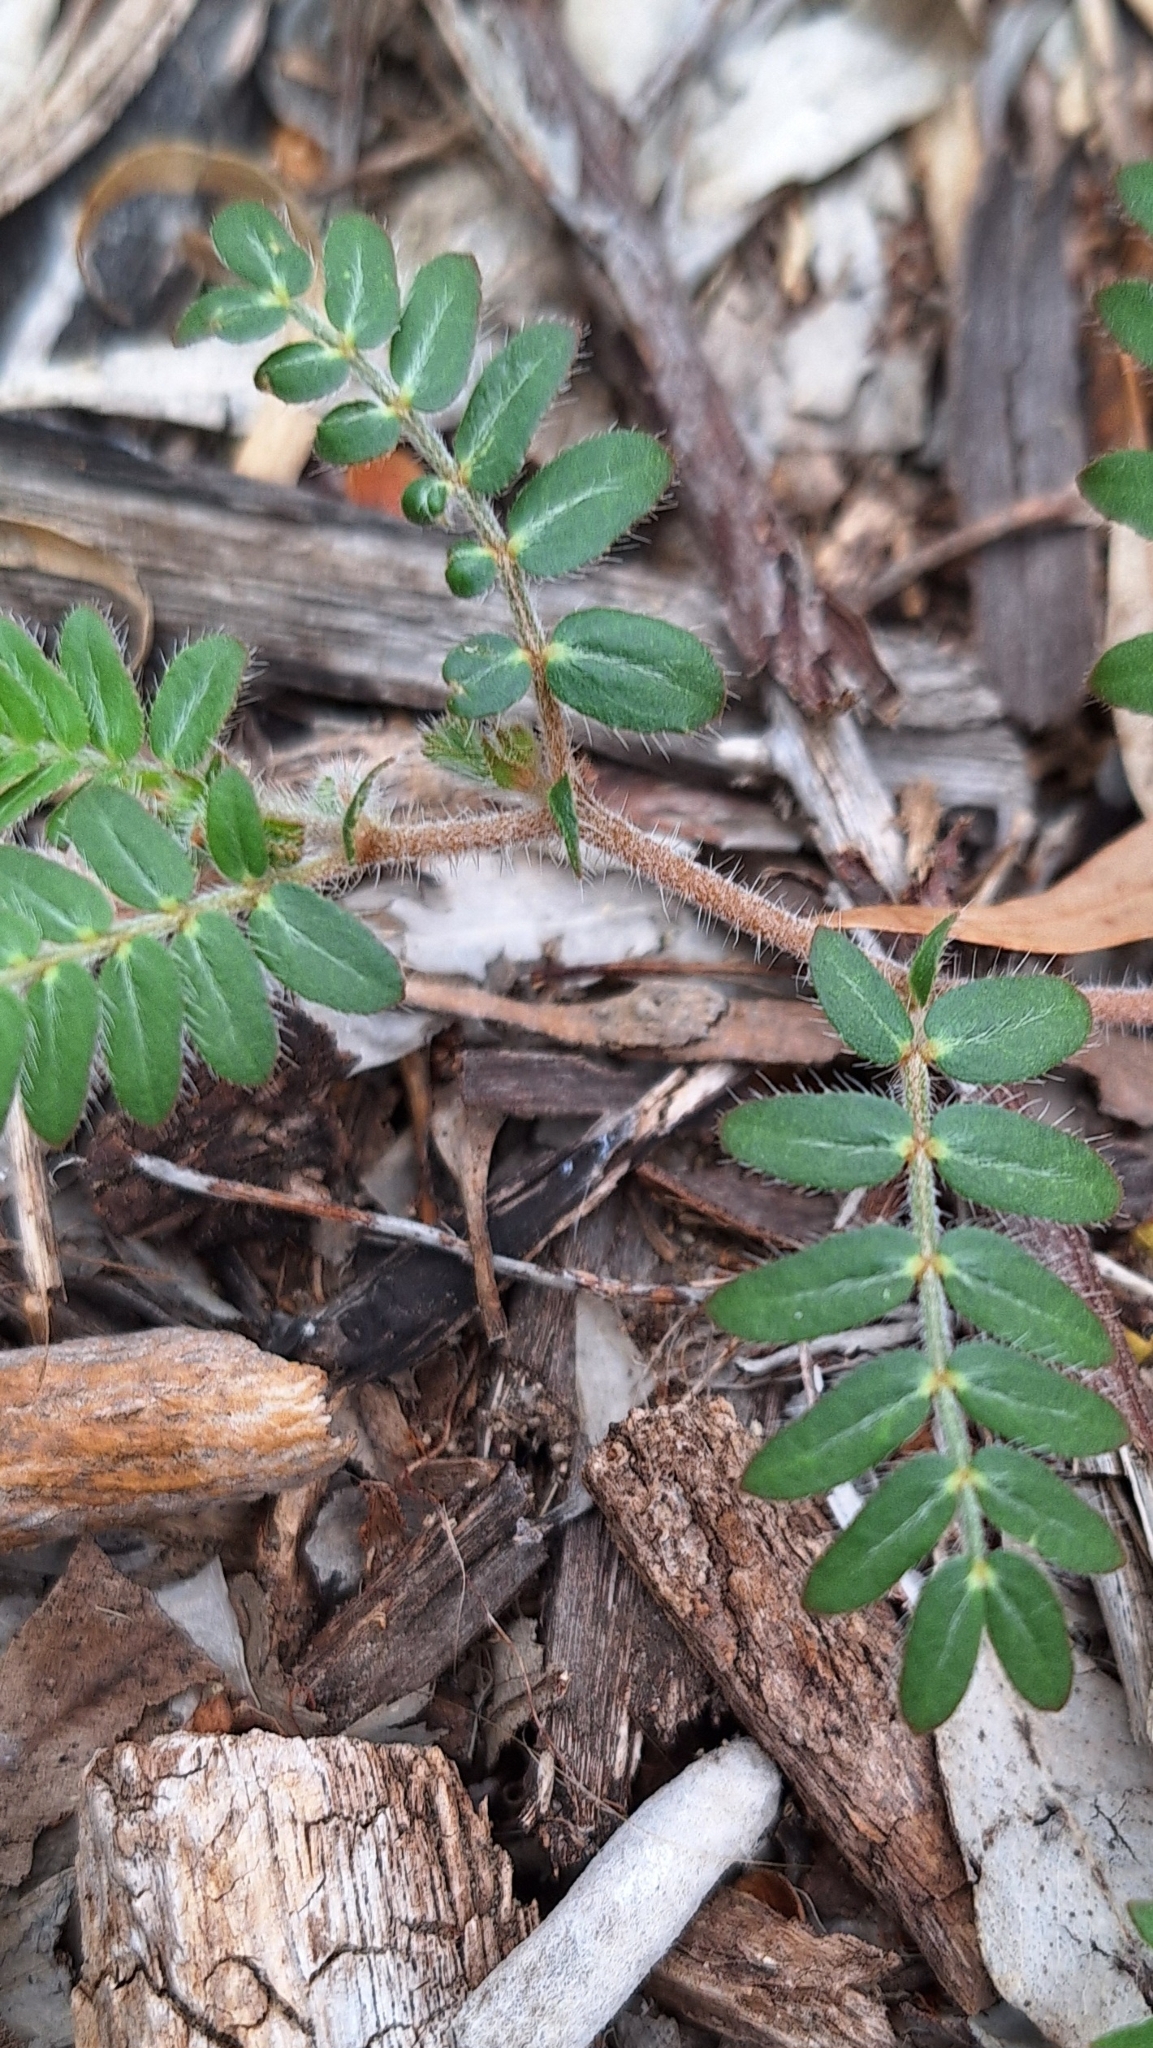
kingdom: Plantae
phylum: Tracheophyta
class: Magnoliopsida
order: Zygophyllales
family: Zygophyllaceae
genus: Tribulus
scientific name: Tribulus terrestris
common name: Puncturevine
